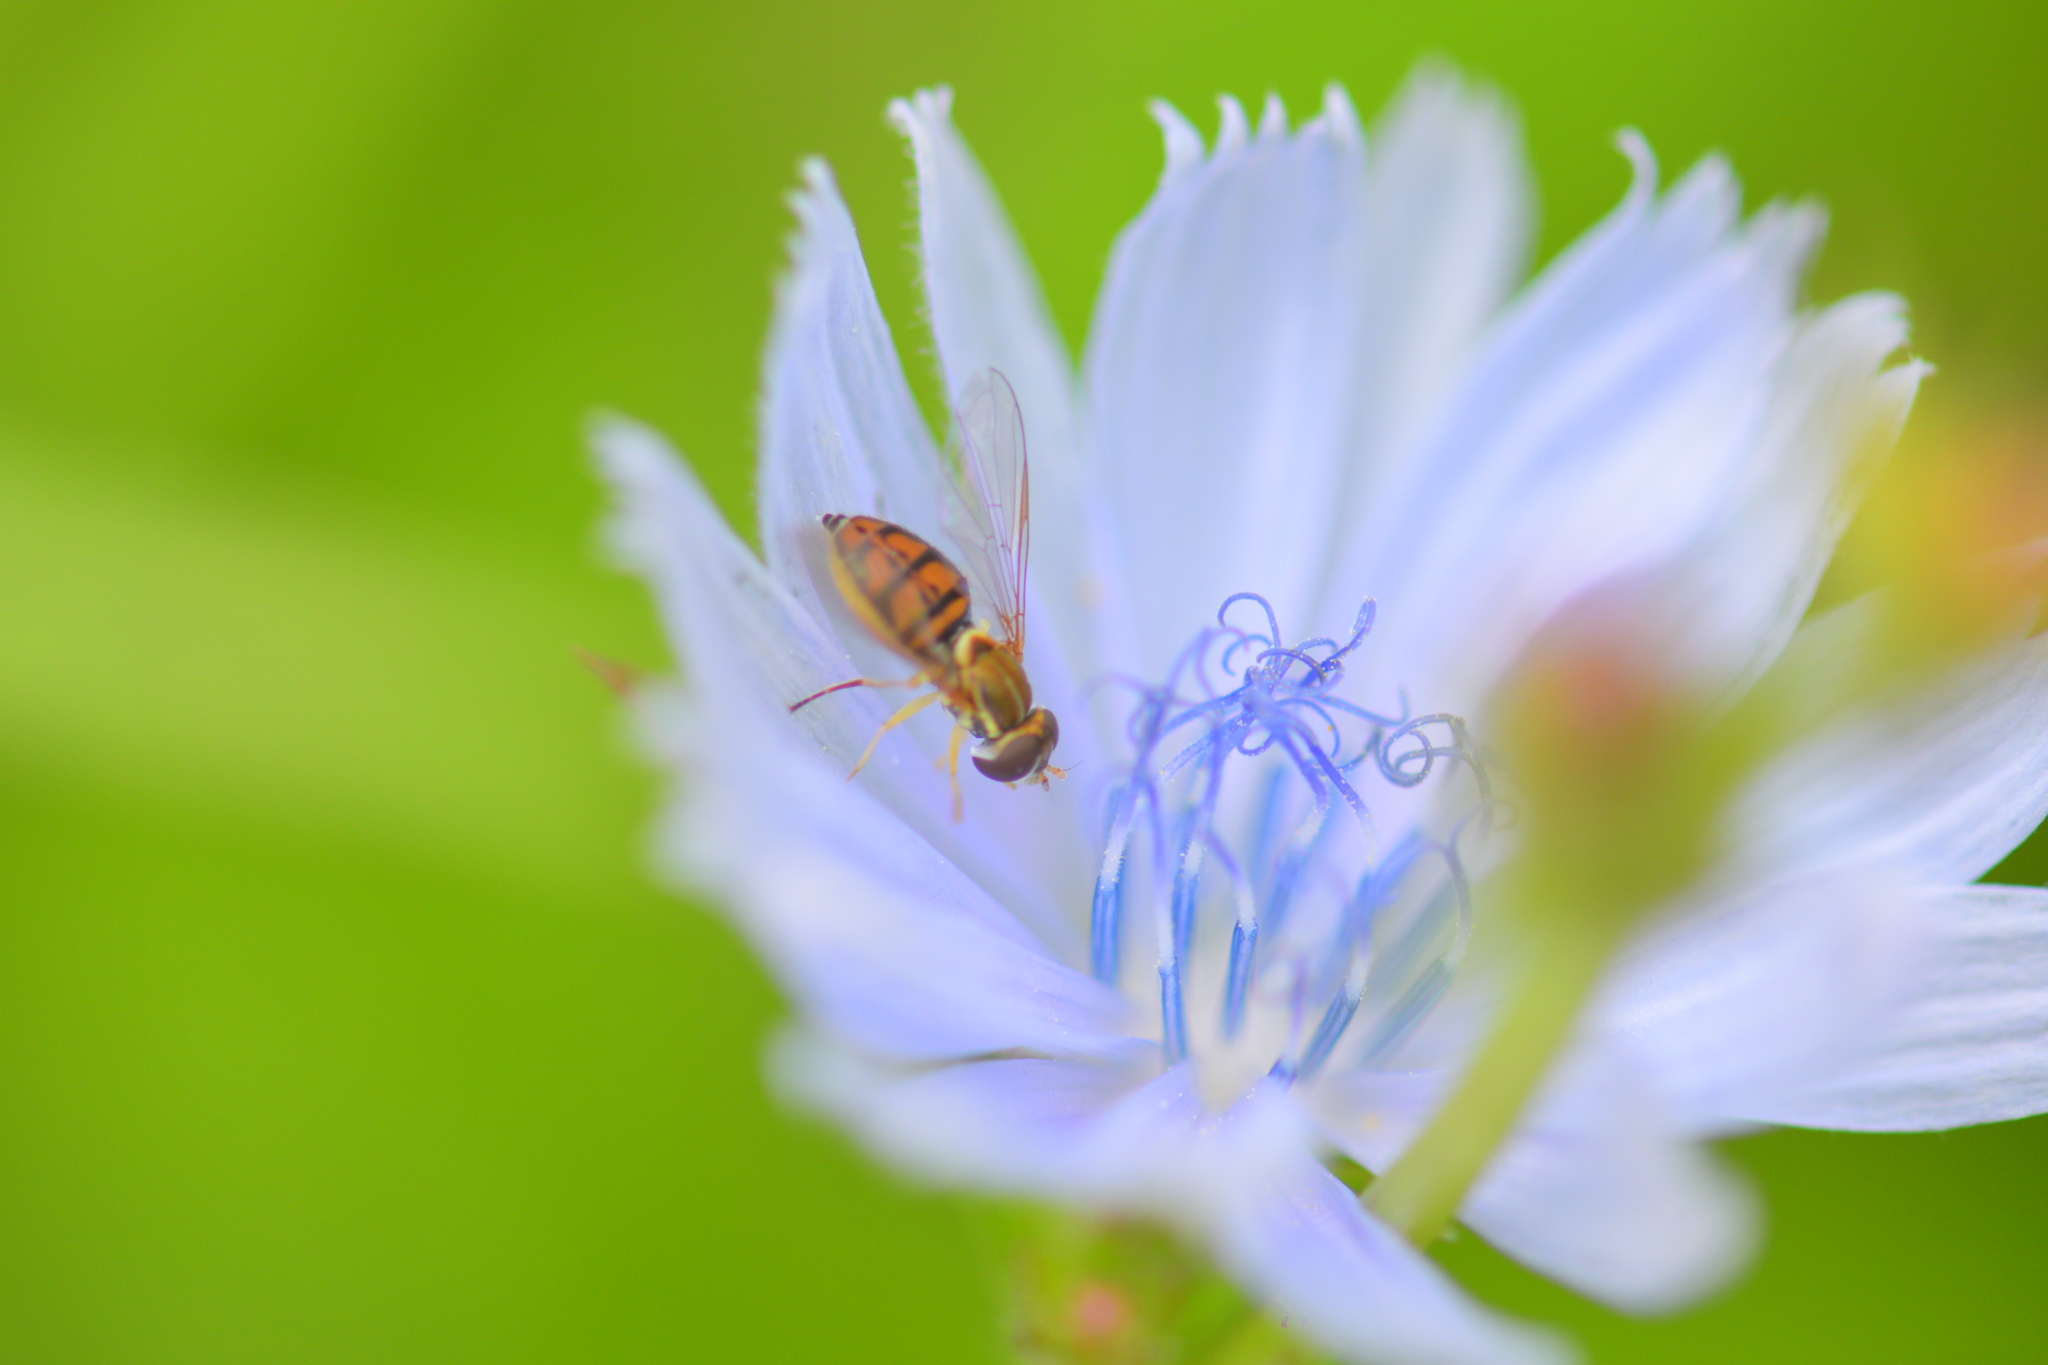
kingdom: Animalia
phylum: Arthropoda
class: Insecta
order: Diptera
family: Syrphidae
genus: Toxomerus
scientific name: Toxomerus marginatus
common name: Syrphid fly
